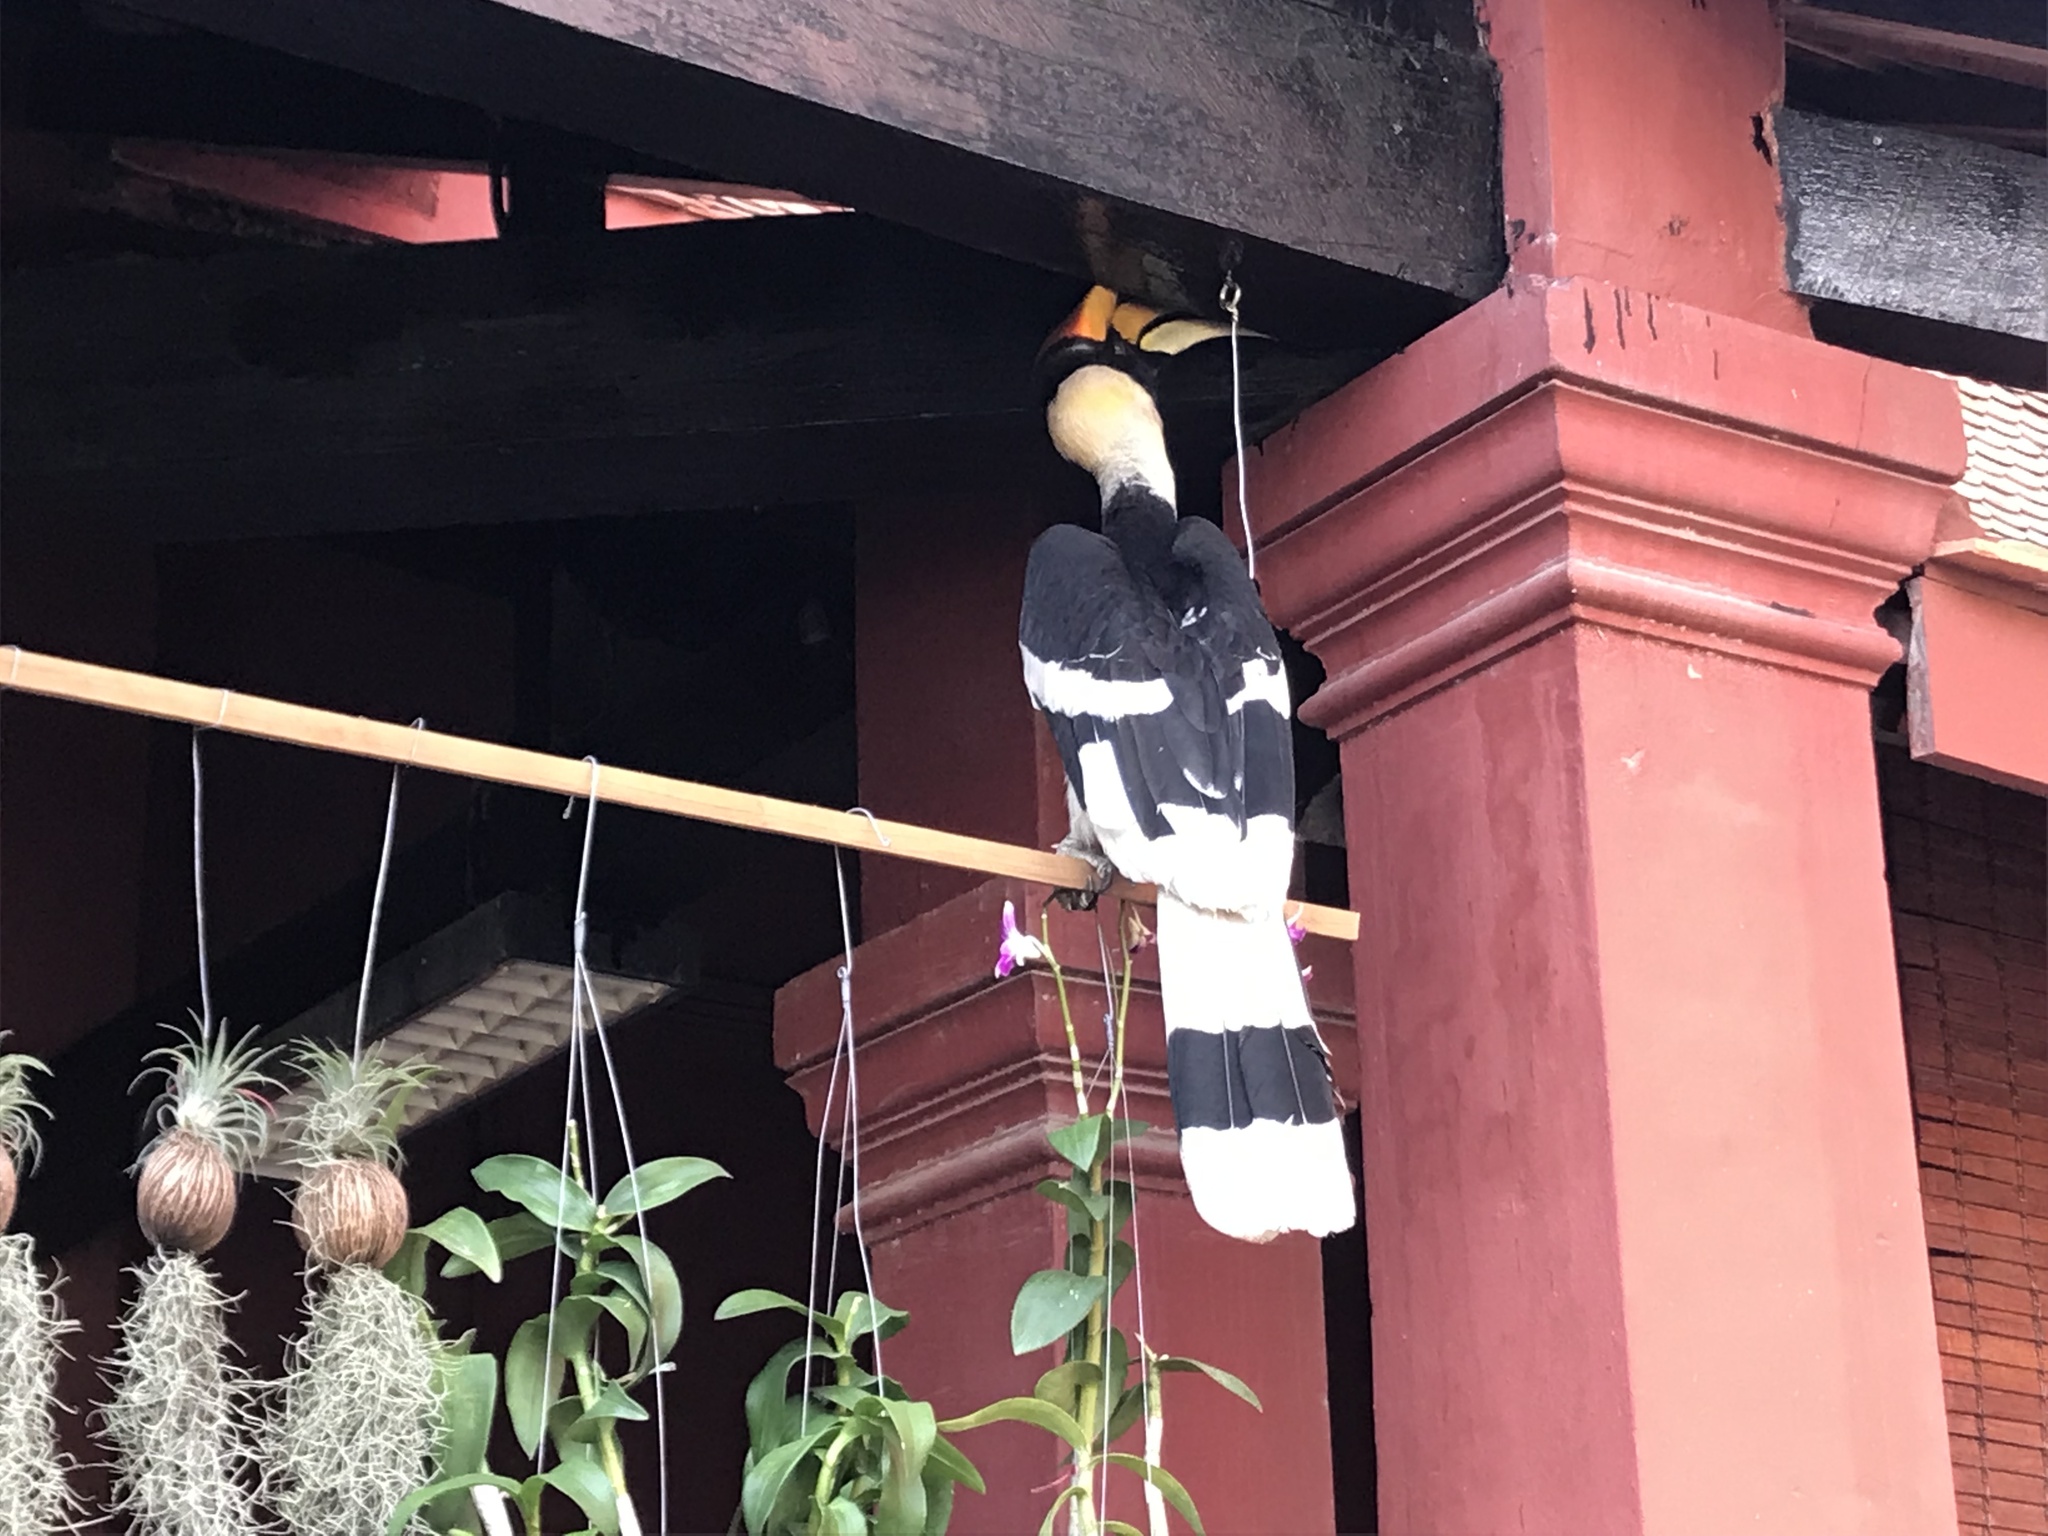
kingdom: Animalia
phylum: Chordata
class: Aves
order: Bucerotiformes
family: Bucerotidae
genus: Buceros
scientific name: Buceros bicornis
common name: Great hornbill
